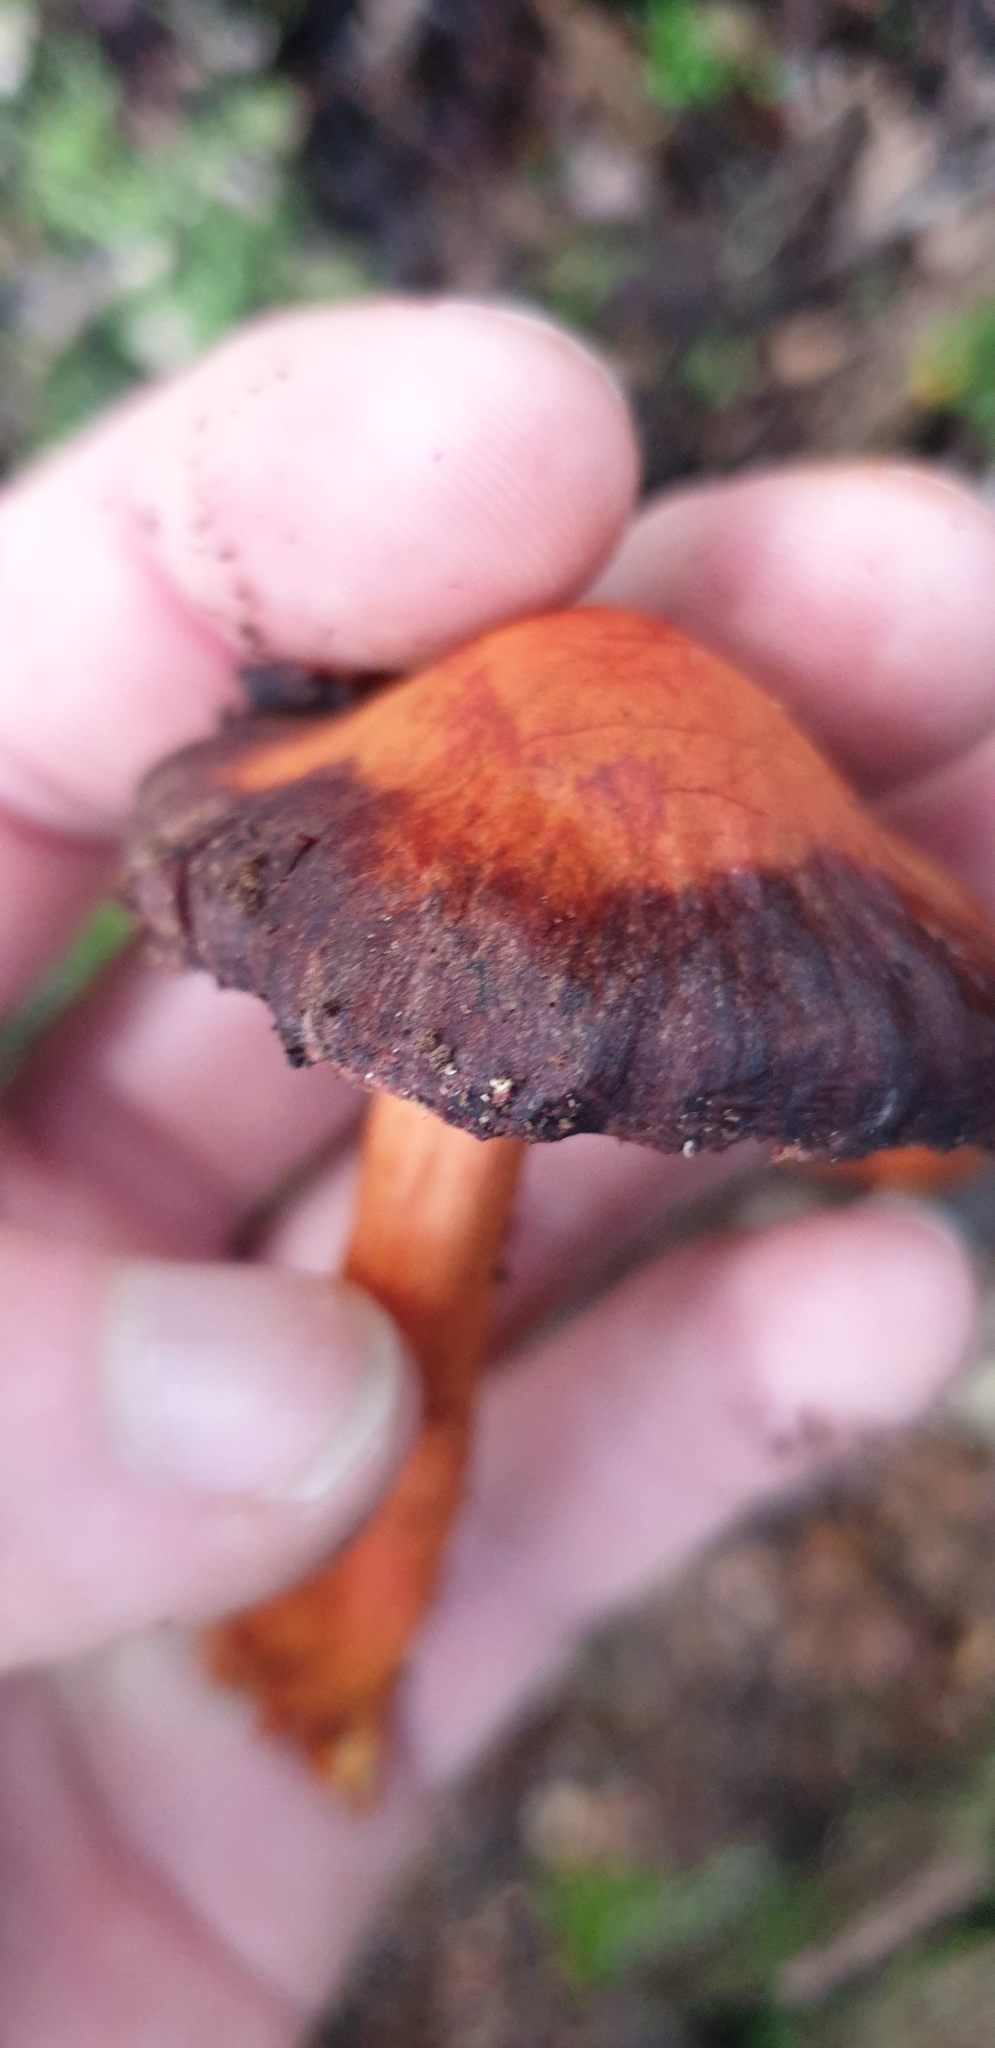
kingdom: Fungi
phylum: Basidiomycota
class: Agaricomycetes
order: Agaricales
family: Strophariaceae
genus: Leratiomyces
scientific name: Leratiomyces ceres
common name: Redlead roundhead
